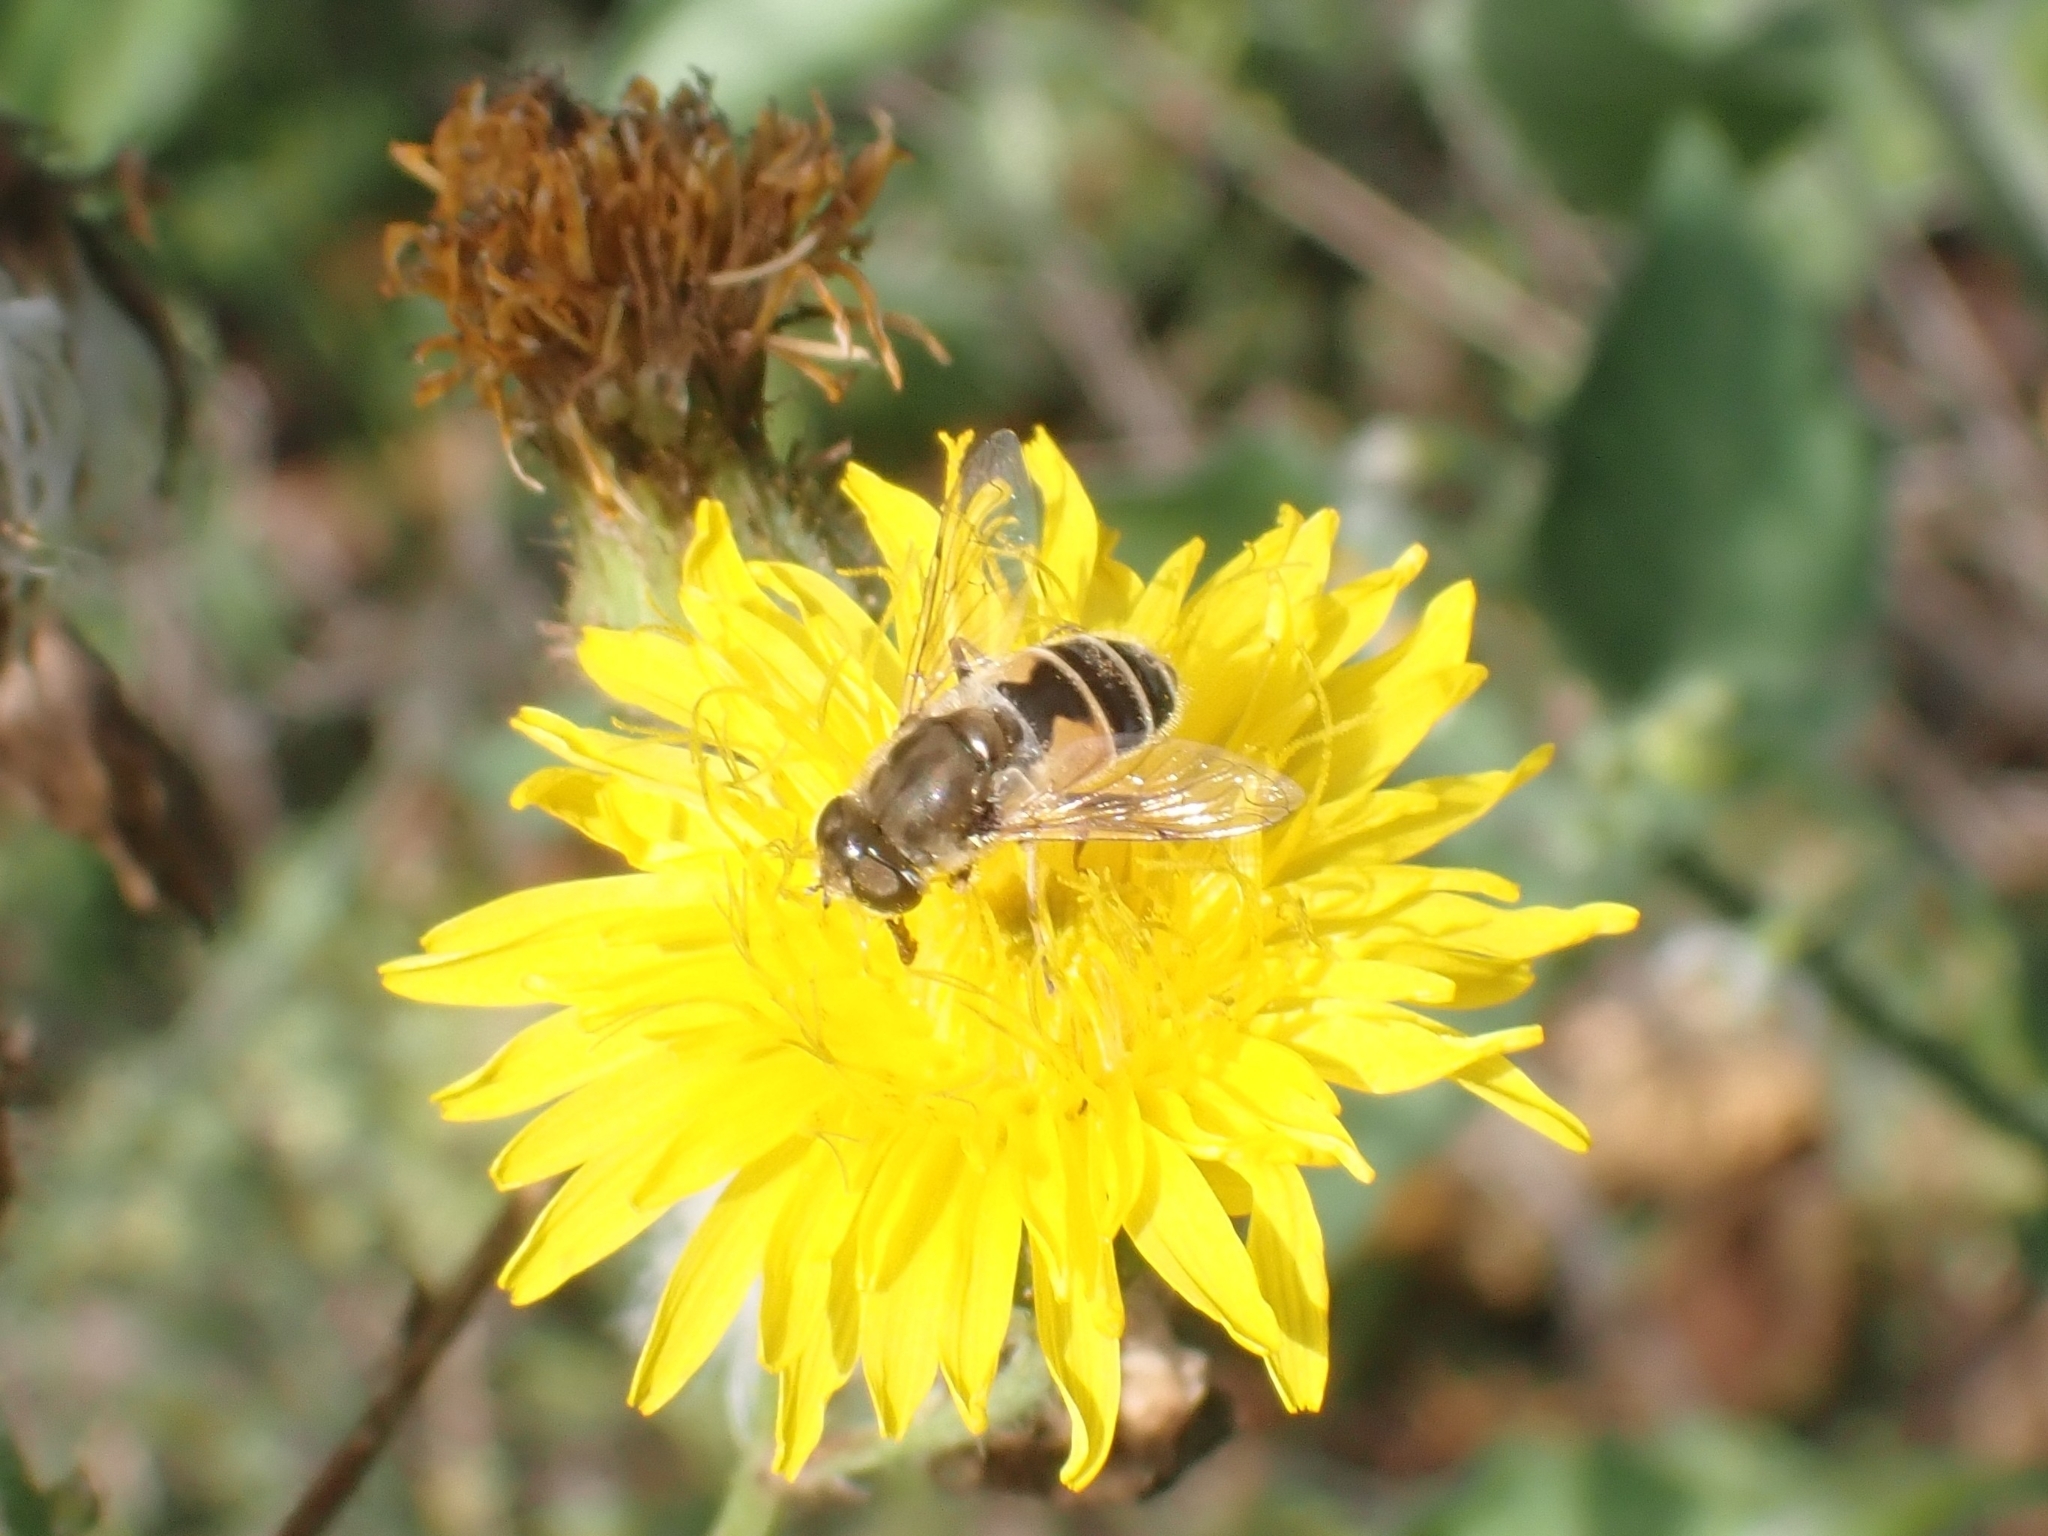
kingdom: Animalia
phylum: Arthropoda
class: Insecta
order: Diptera
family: Syrphidae
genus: Eoseristalis
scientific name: Eoseristalis
